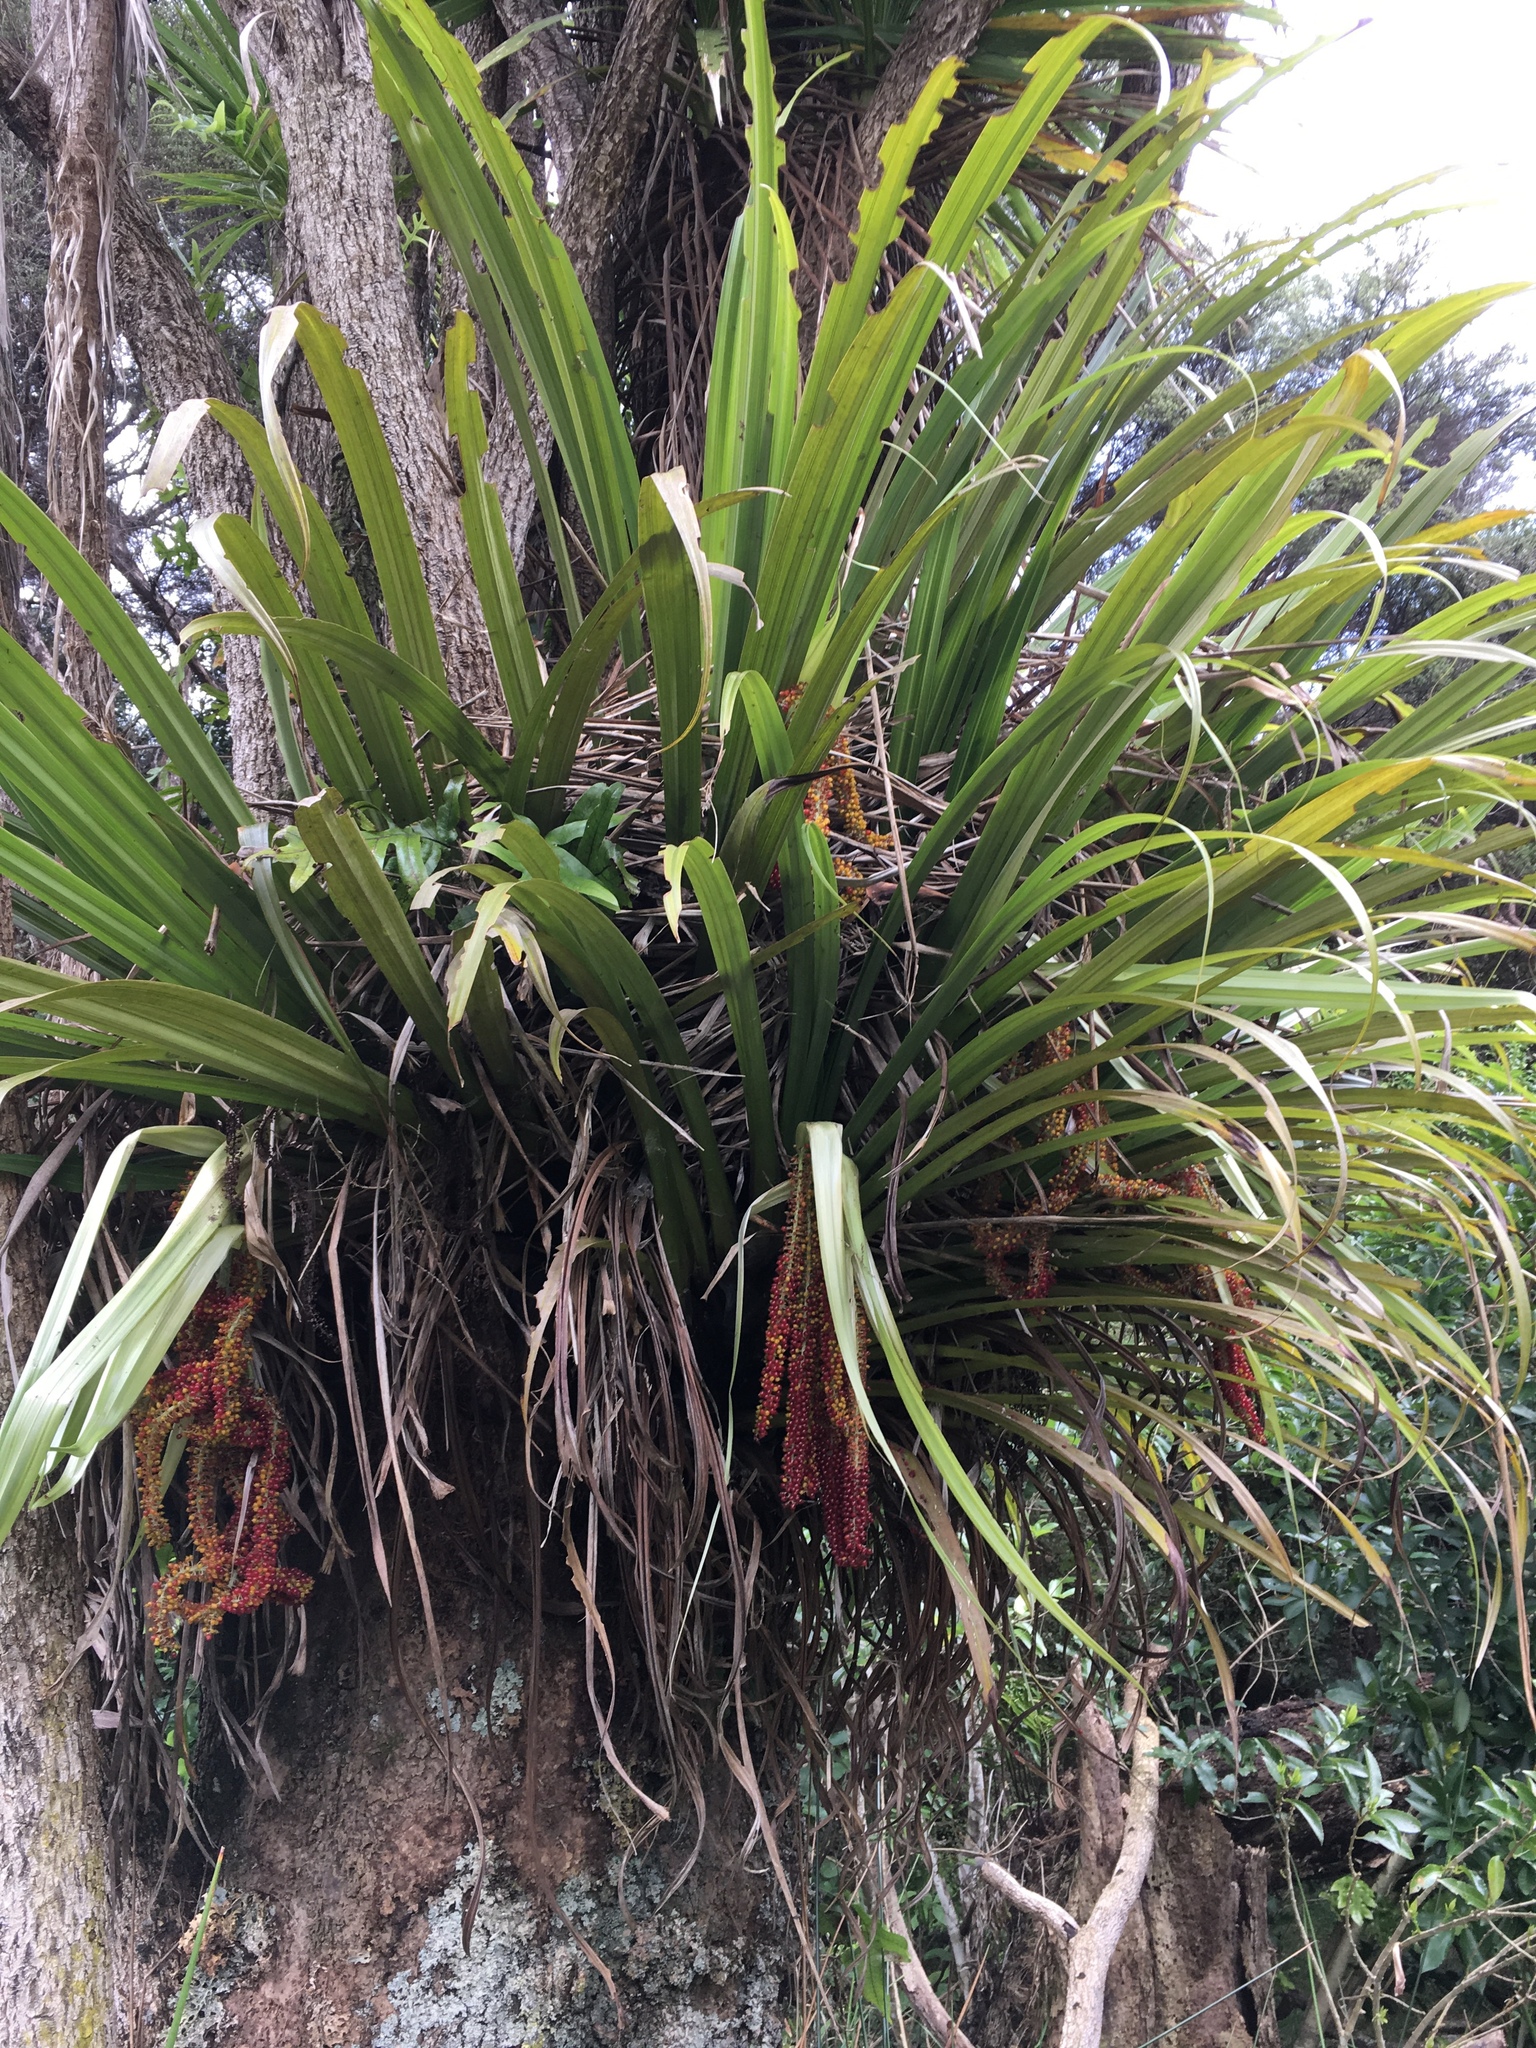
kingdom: Plantae
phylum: Tracheophyta
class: Liliopsida
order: Asparagales
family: Asteliaceae
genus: Astelia
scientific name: Astelia hastata
